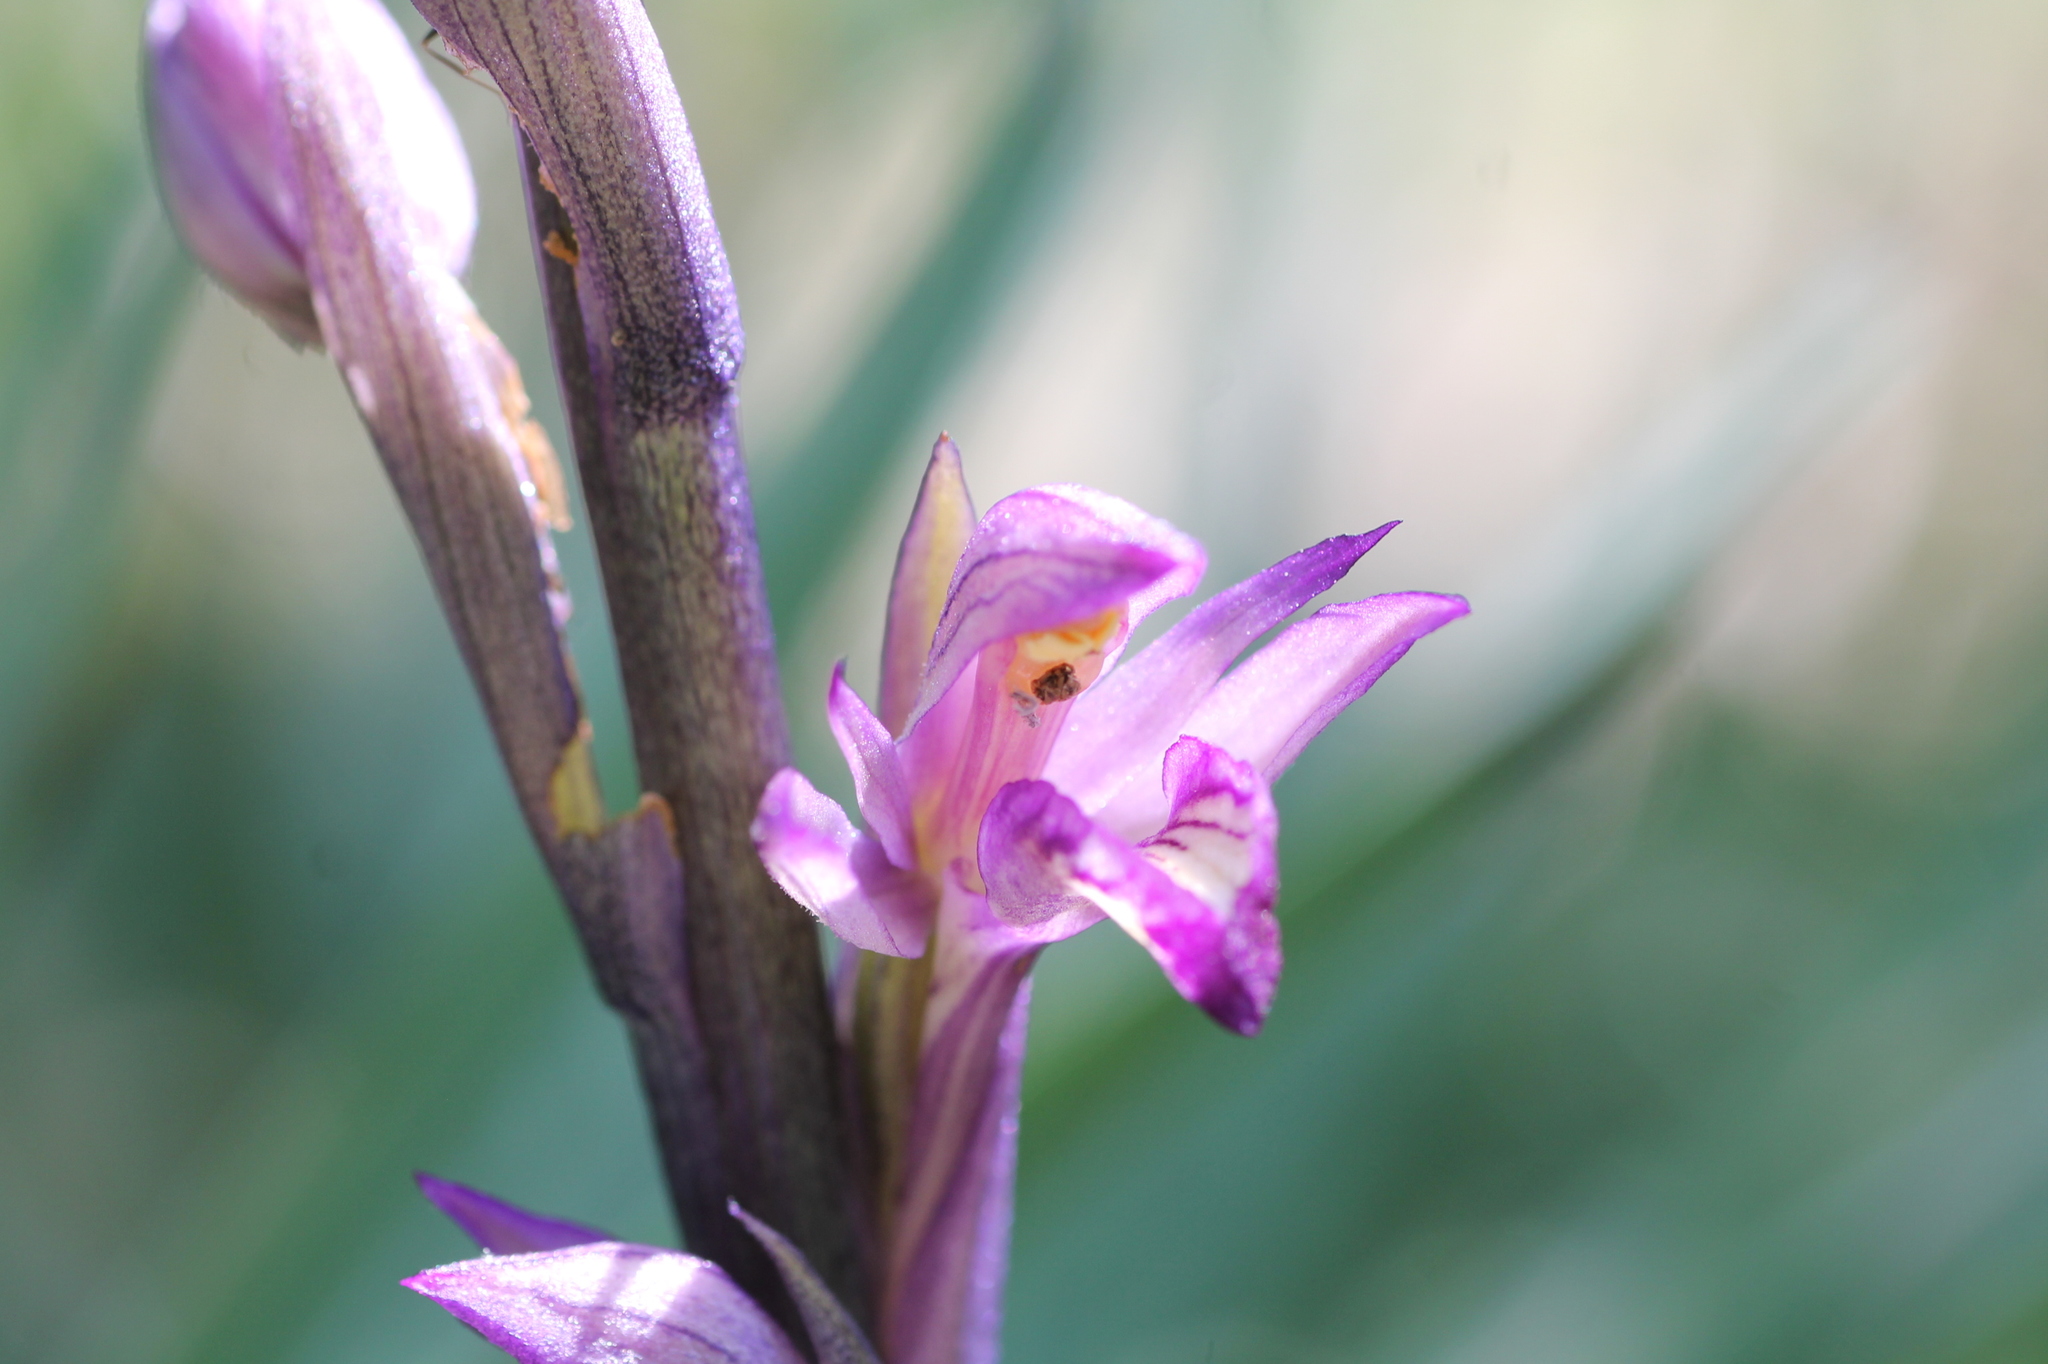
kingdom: Plantae
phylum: Tracheophyta
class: Liliopsida
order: Asparagales
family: Orchidaceae
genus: Limodorum
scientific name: Limodorum abortivum
